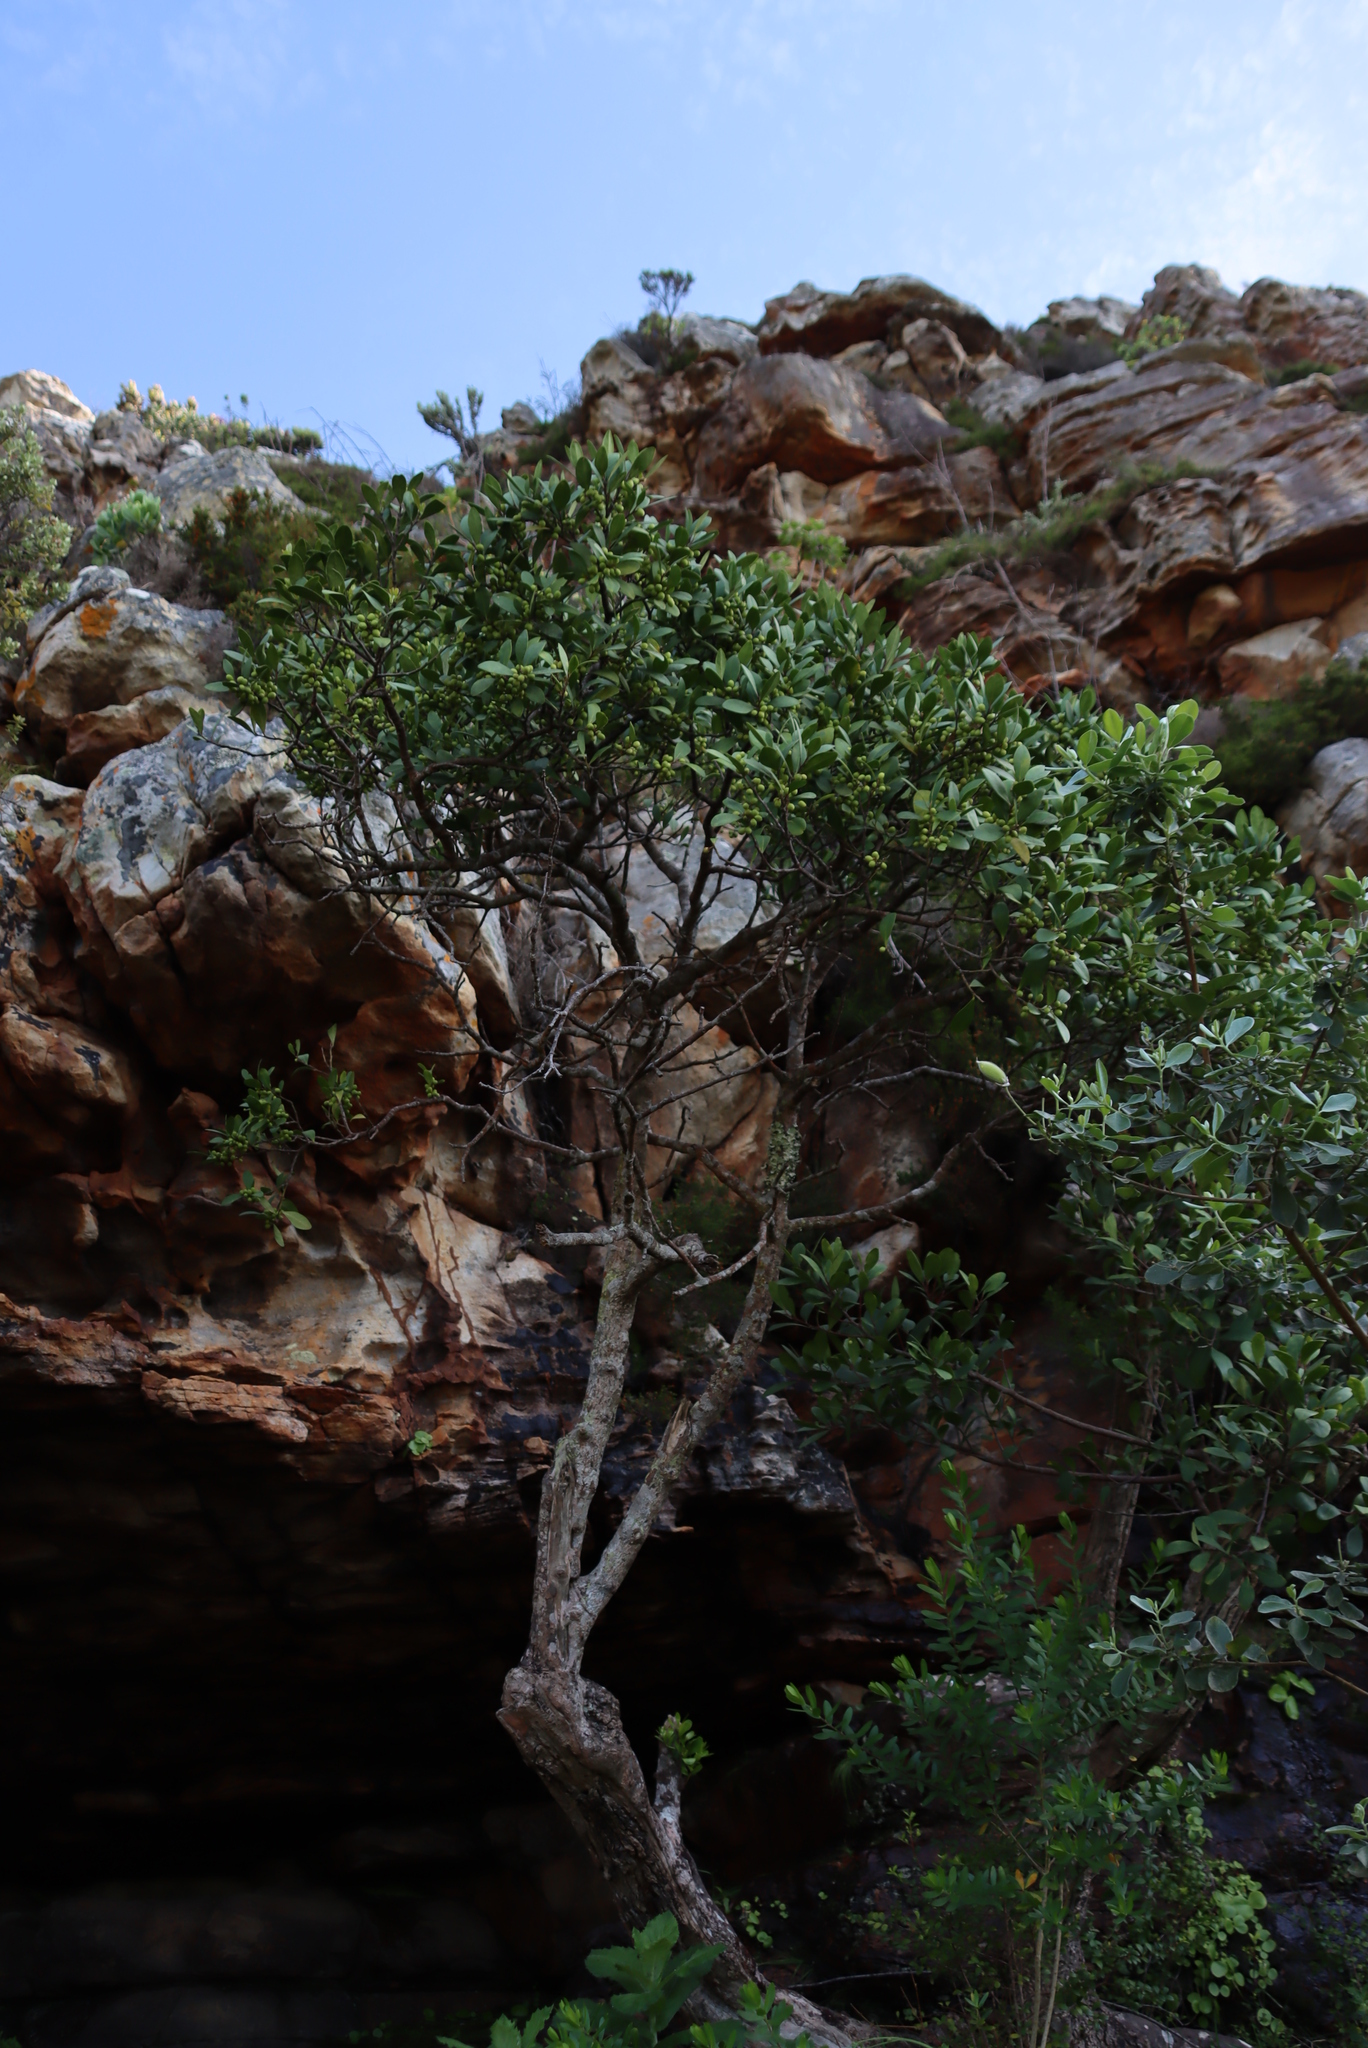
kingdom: Plantae
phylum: Tracheophyta
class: Magnoliopsida
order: Celastrales
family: Celastraceae
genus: Gymnosporia
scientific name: Gymnosporia laurina
